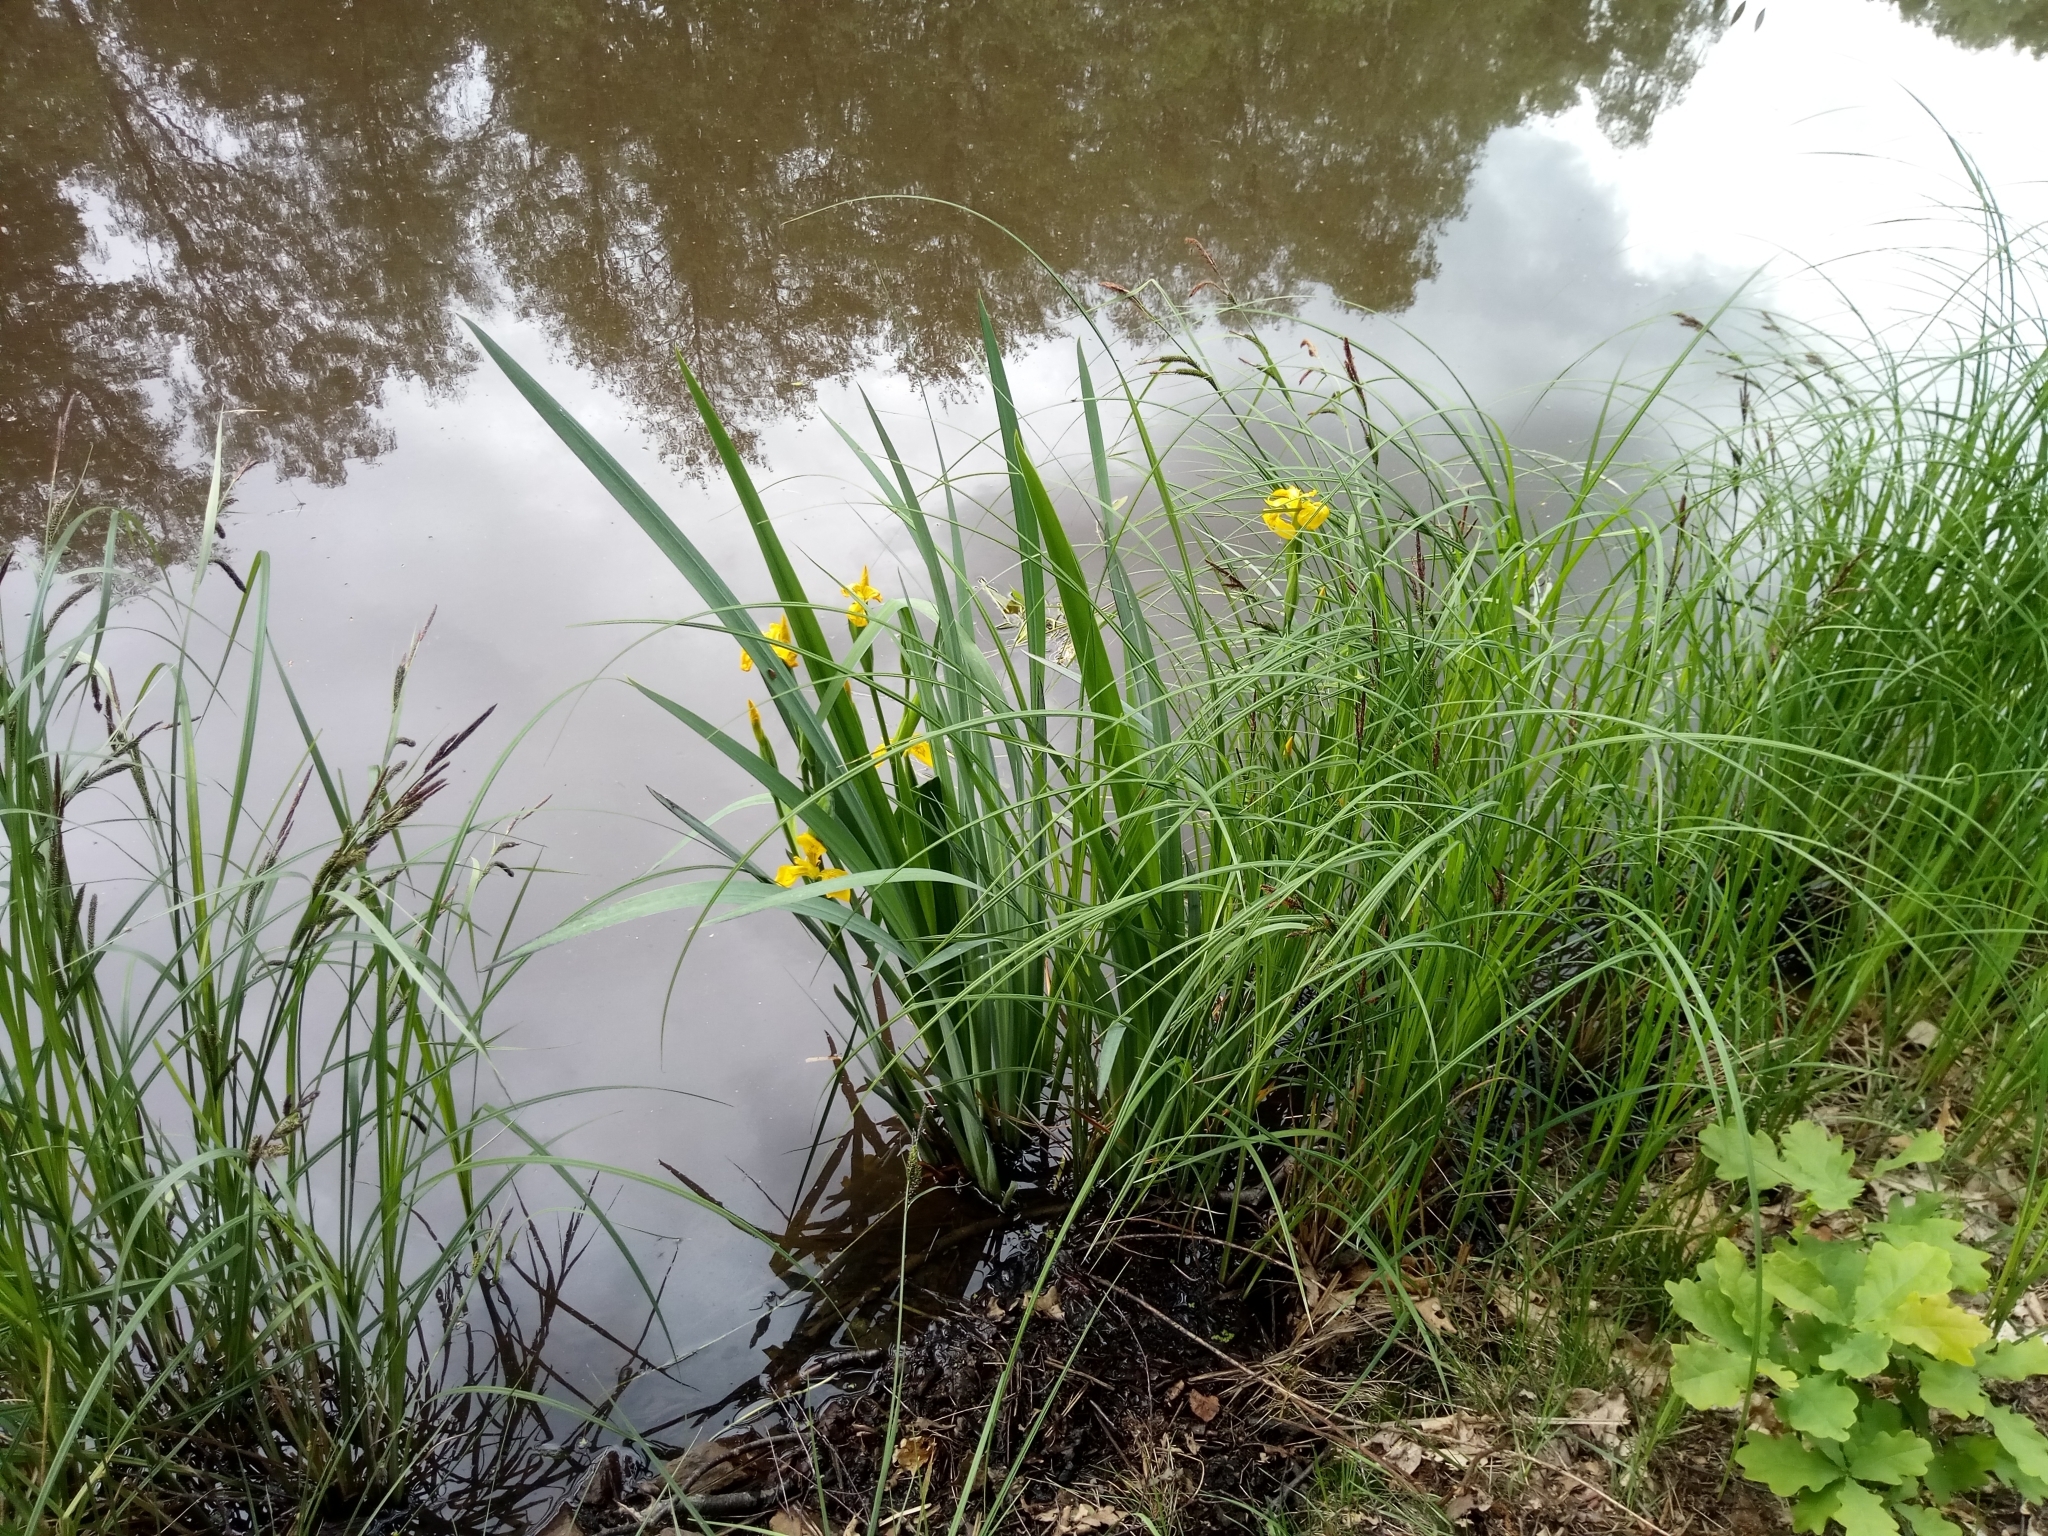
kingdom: Plantae
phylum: Tracheophyta
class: Liliopsida
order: Asparagales
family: Iridaceae
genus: Iris
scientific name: Iris pseudacorus
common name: Yellow flag
